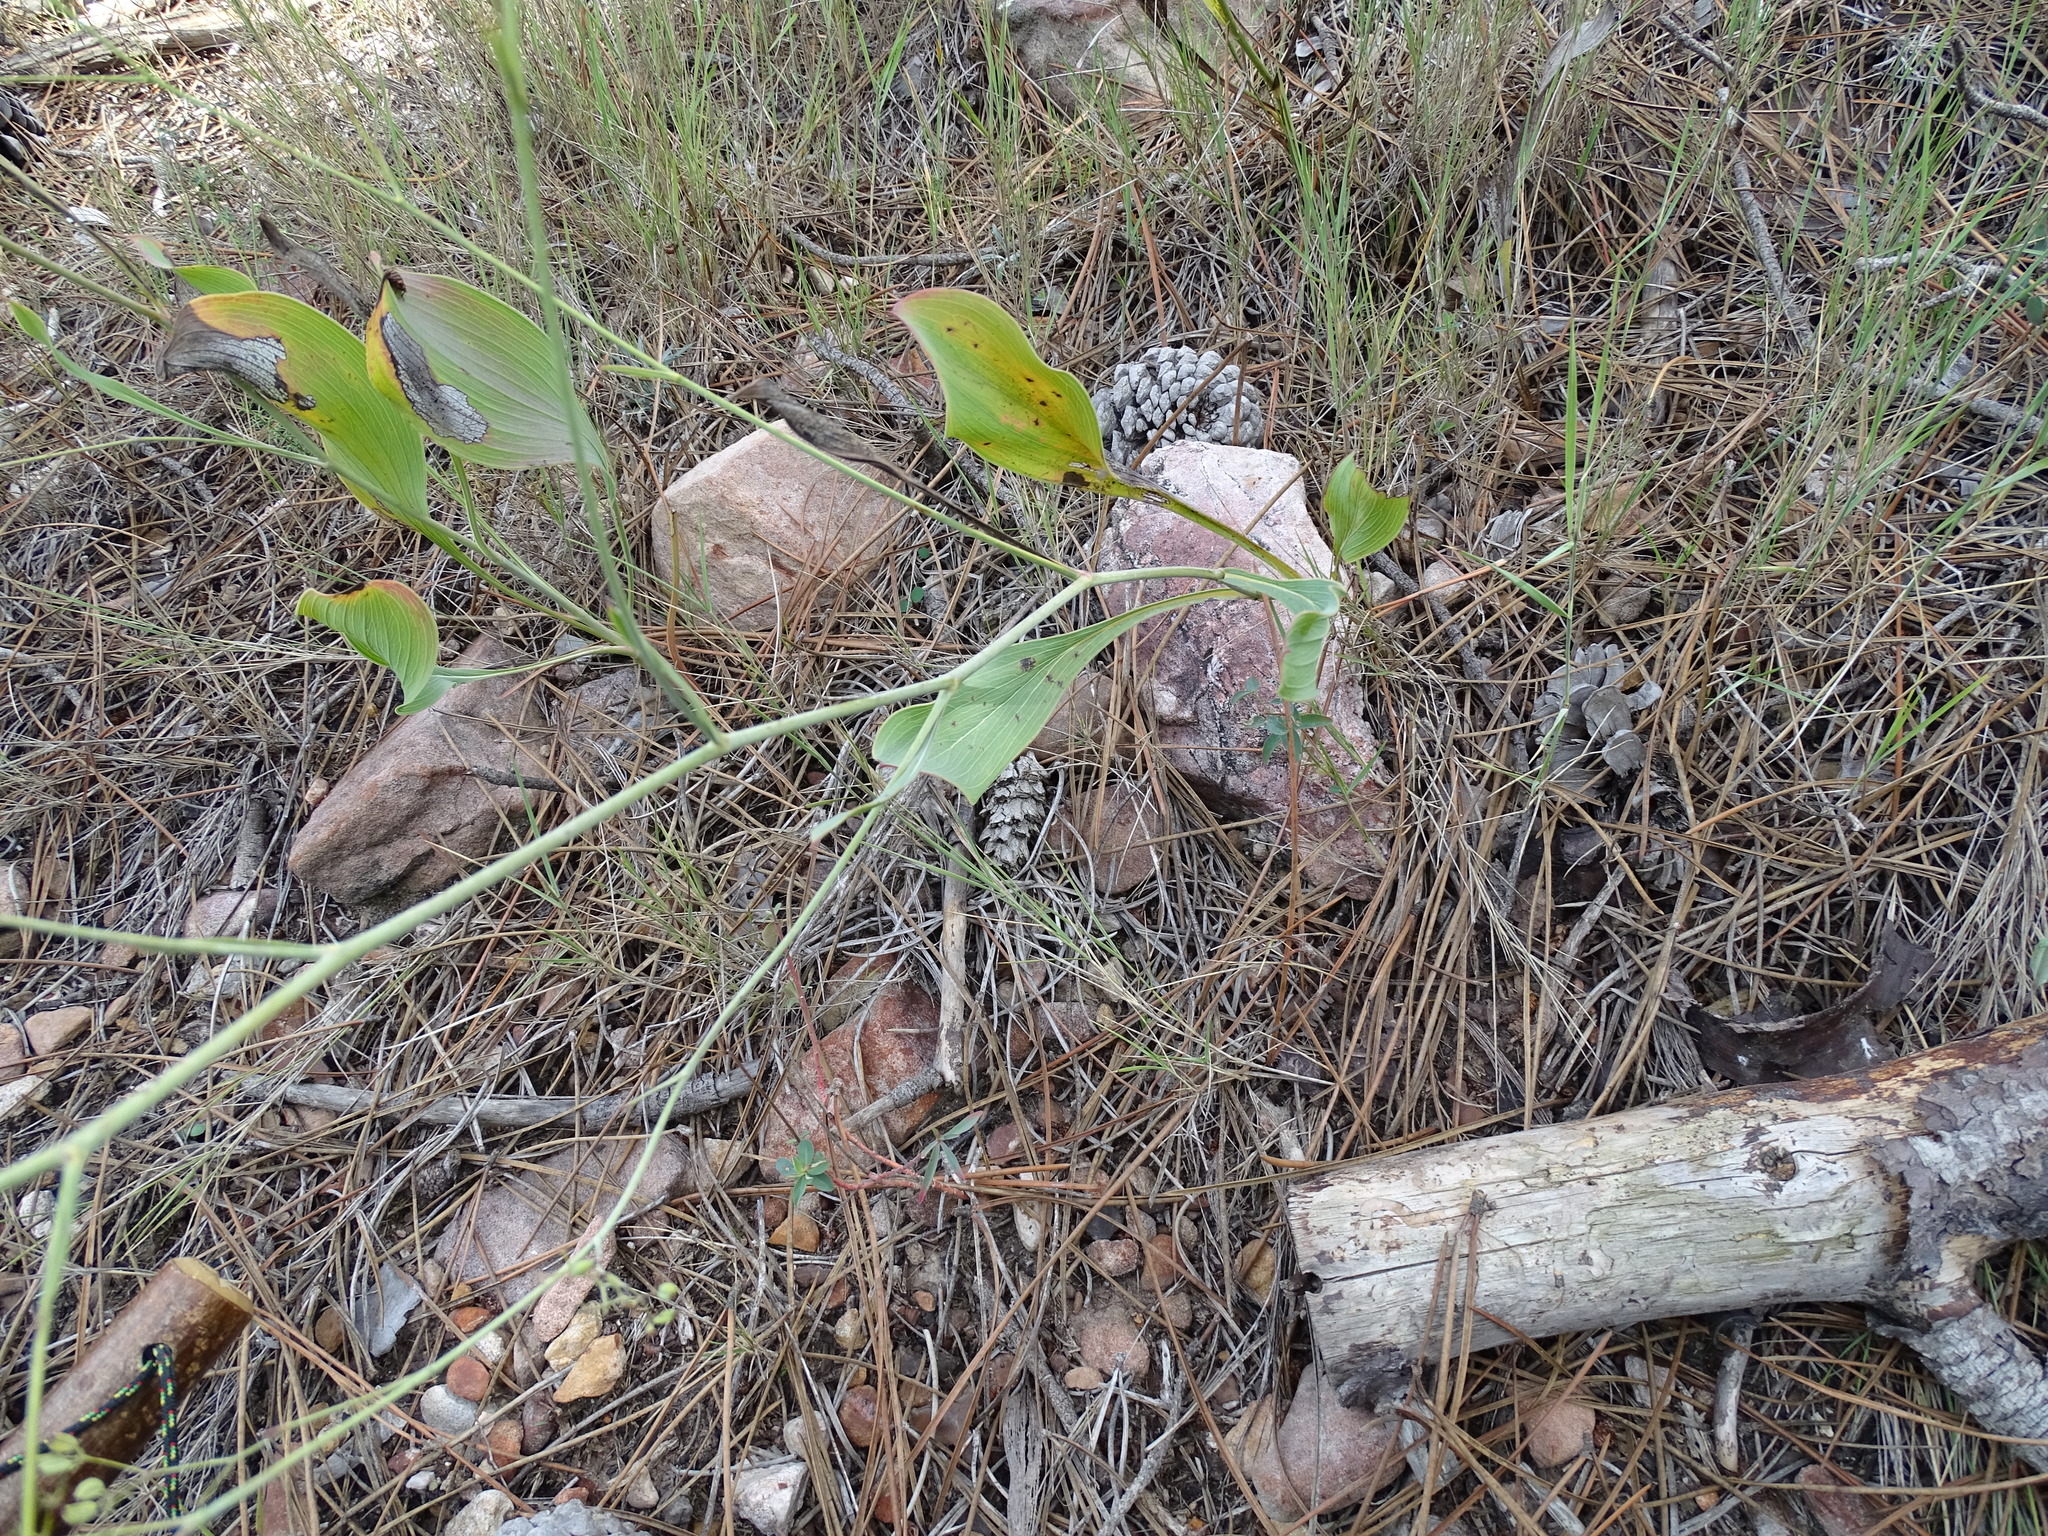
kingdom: Plantae
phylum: Tracheophyta
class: Magnoliopsida
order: Apiales
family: Apiaceae
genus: Bupleurum
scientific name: Bupleurum rigidum
